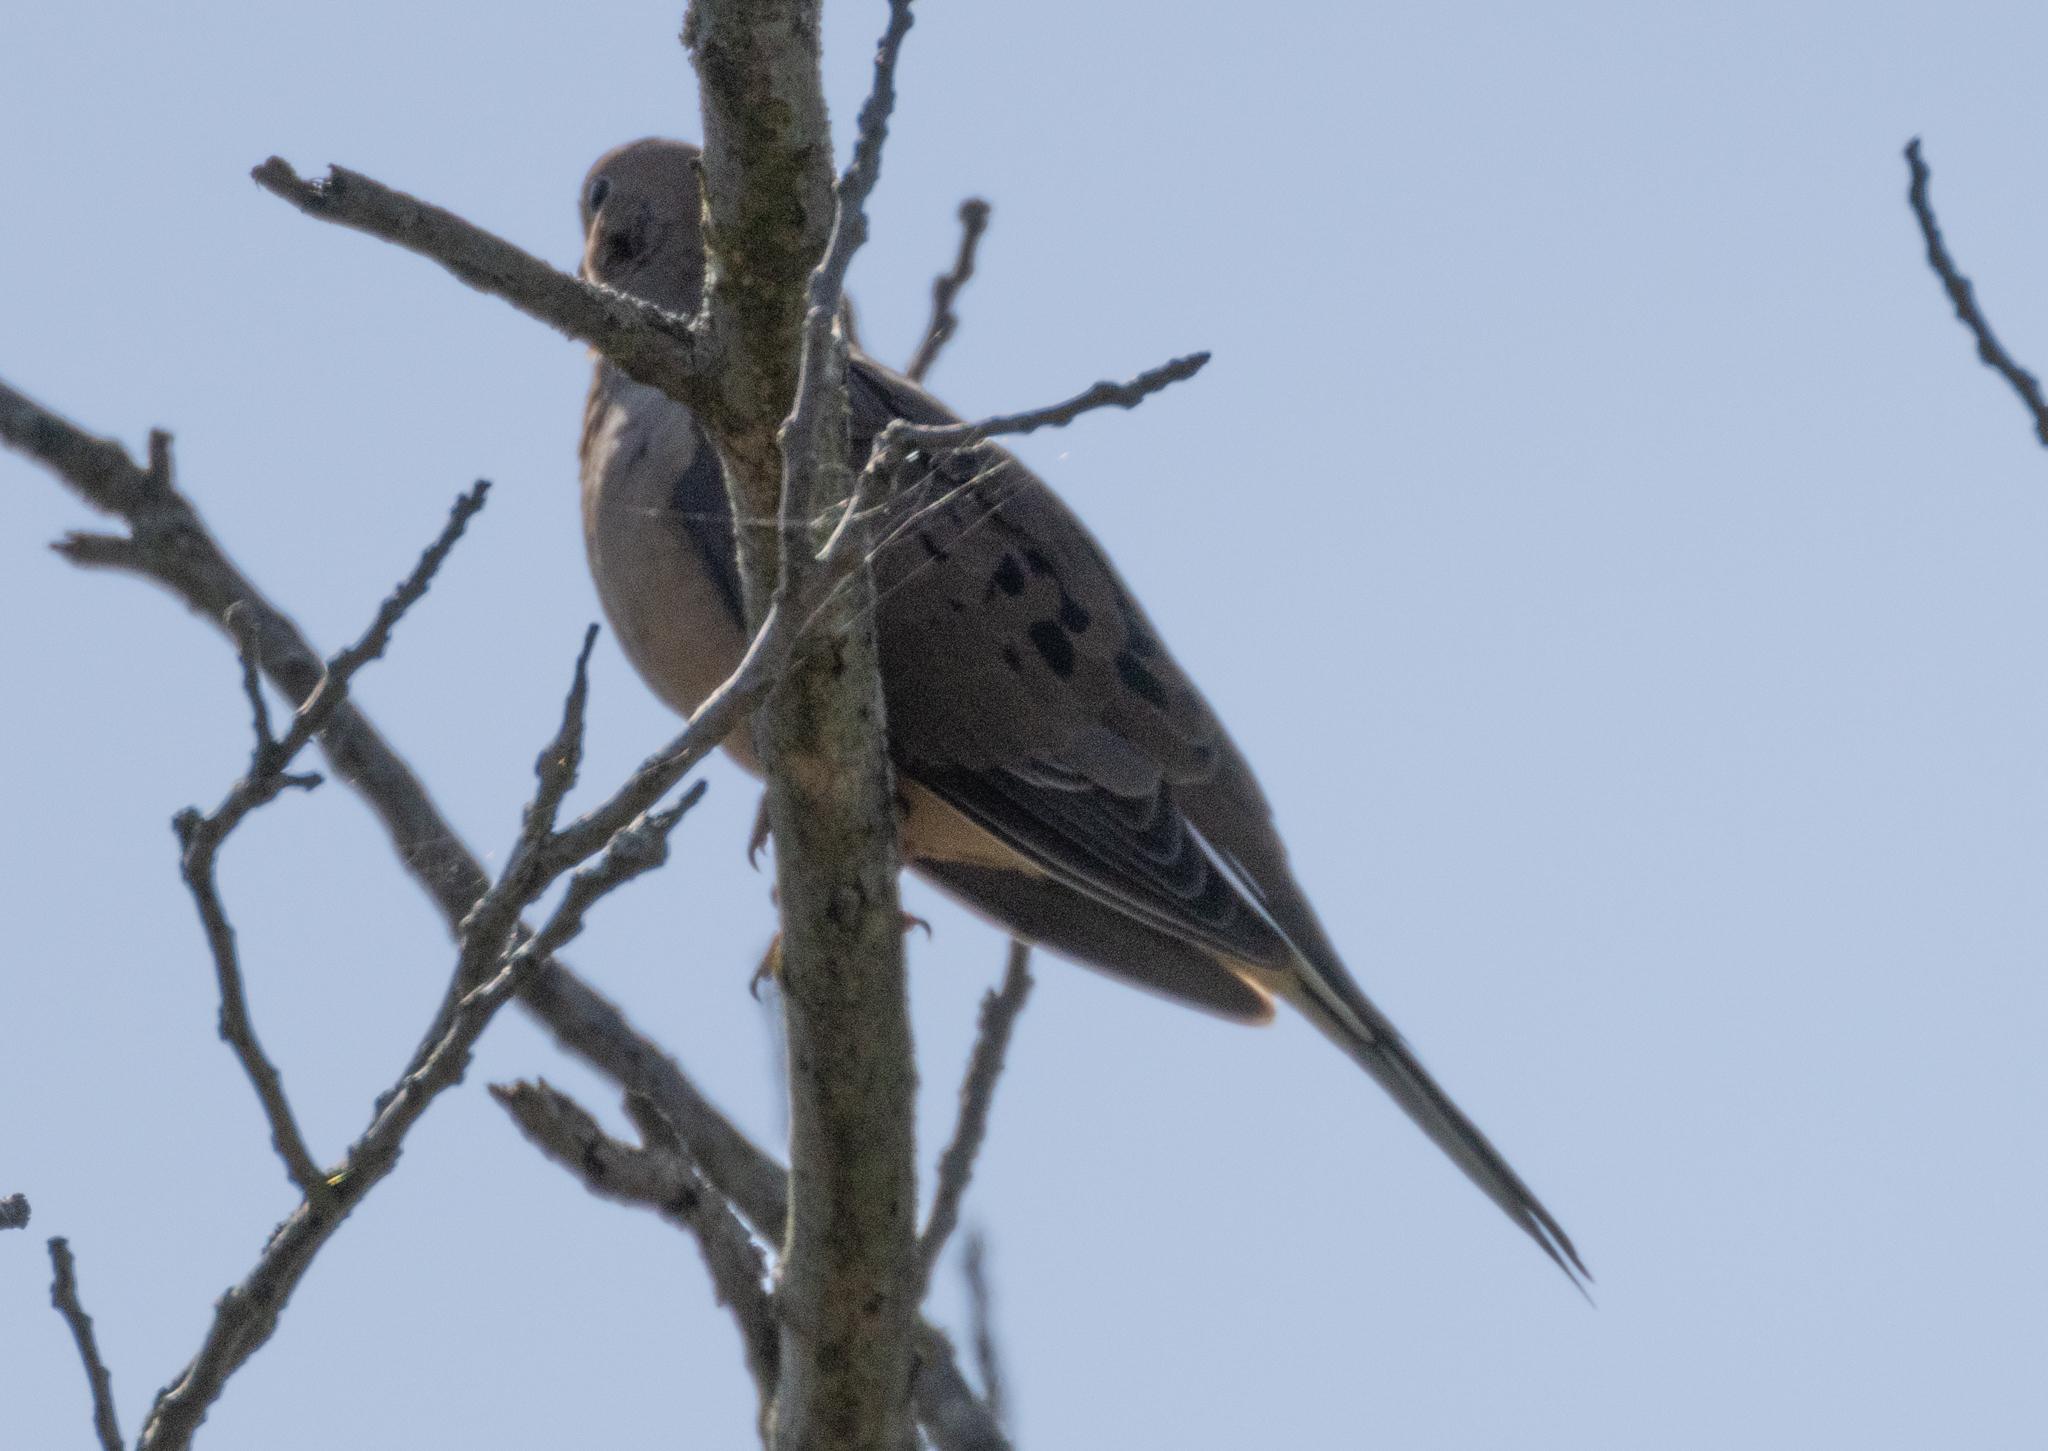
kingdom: Animalia
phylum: Chordata
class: Aves
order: Columbiformes
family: Columbidae
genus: Zenaida
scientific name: Zenaida macroura
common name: Mourning dove
